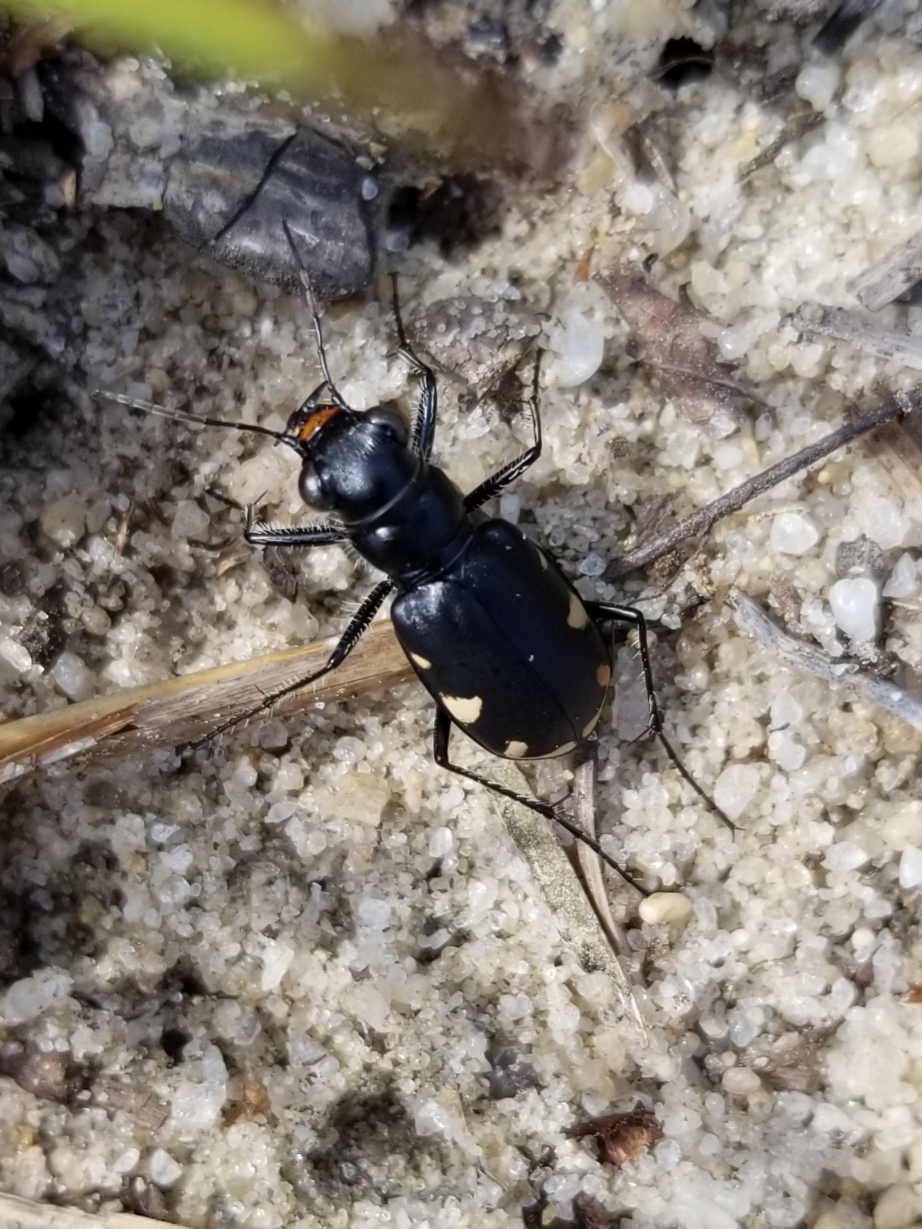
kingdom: Animalia
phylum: Arthropoda
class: Insecta
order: Coleoptera
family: Carabidae
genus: Cicindela
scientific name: Cicindela scutellaris
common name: Festive tiger beetle
